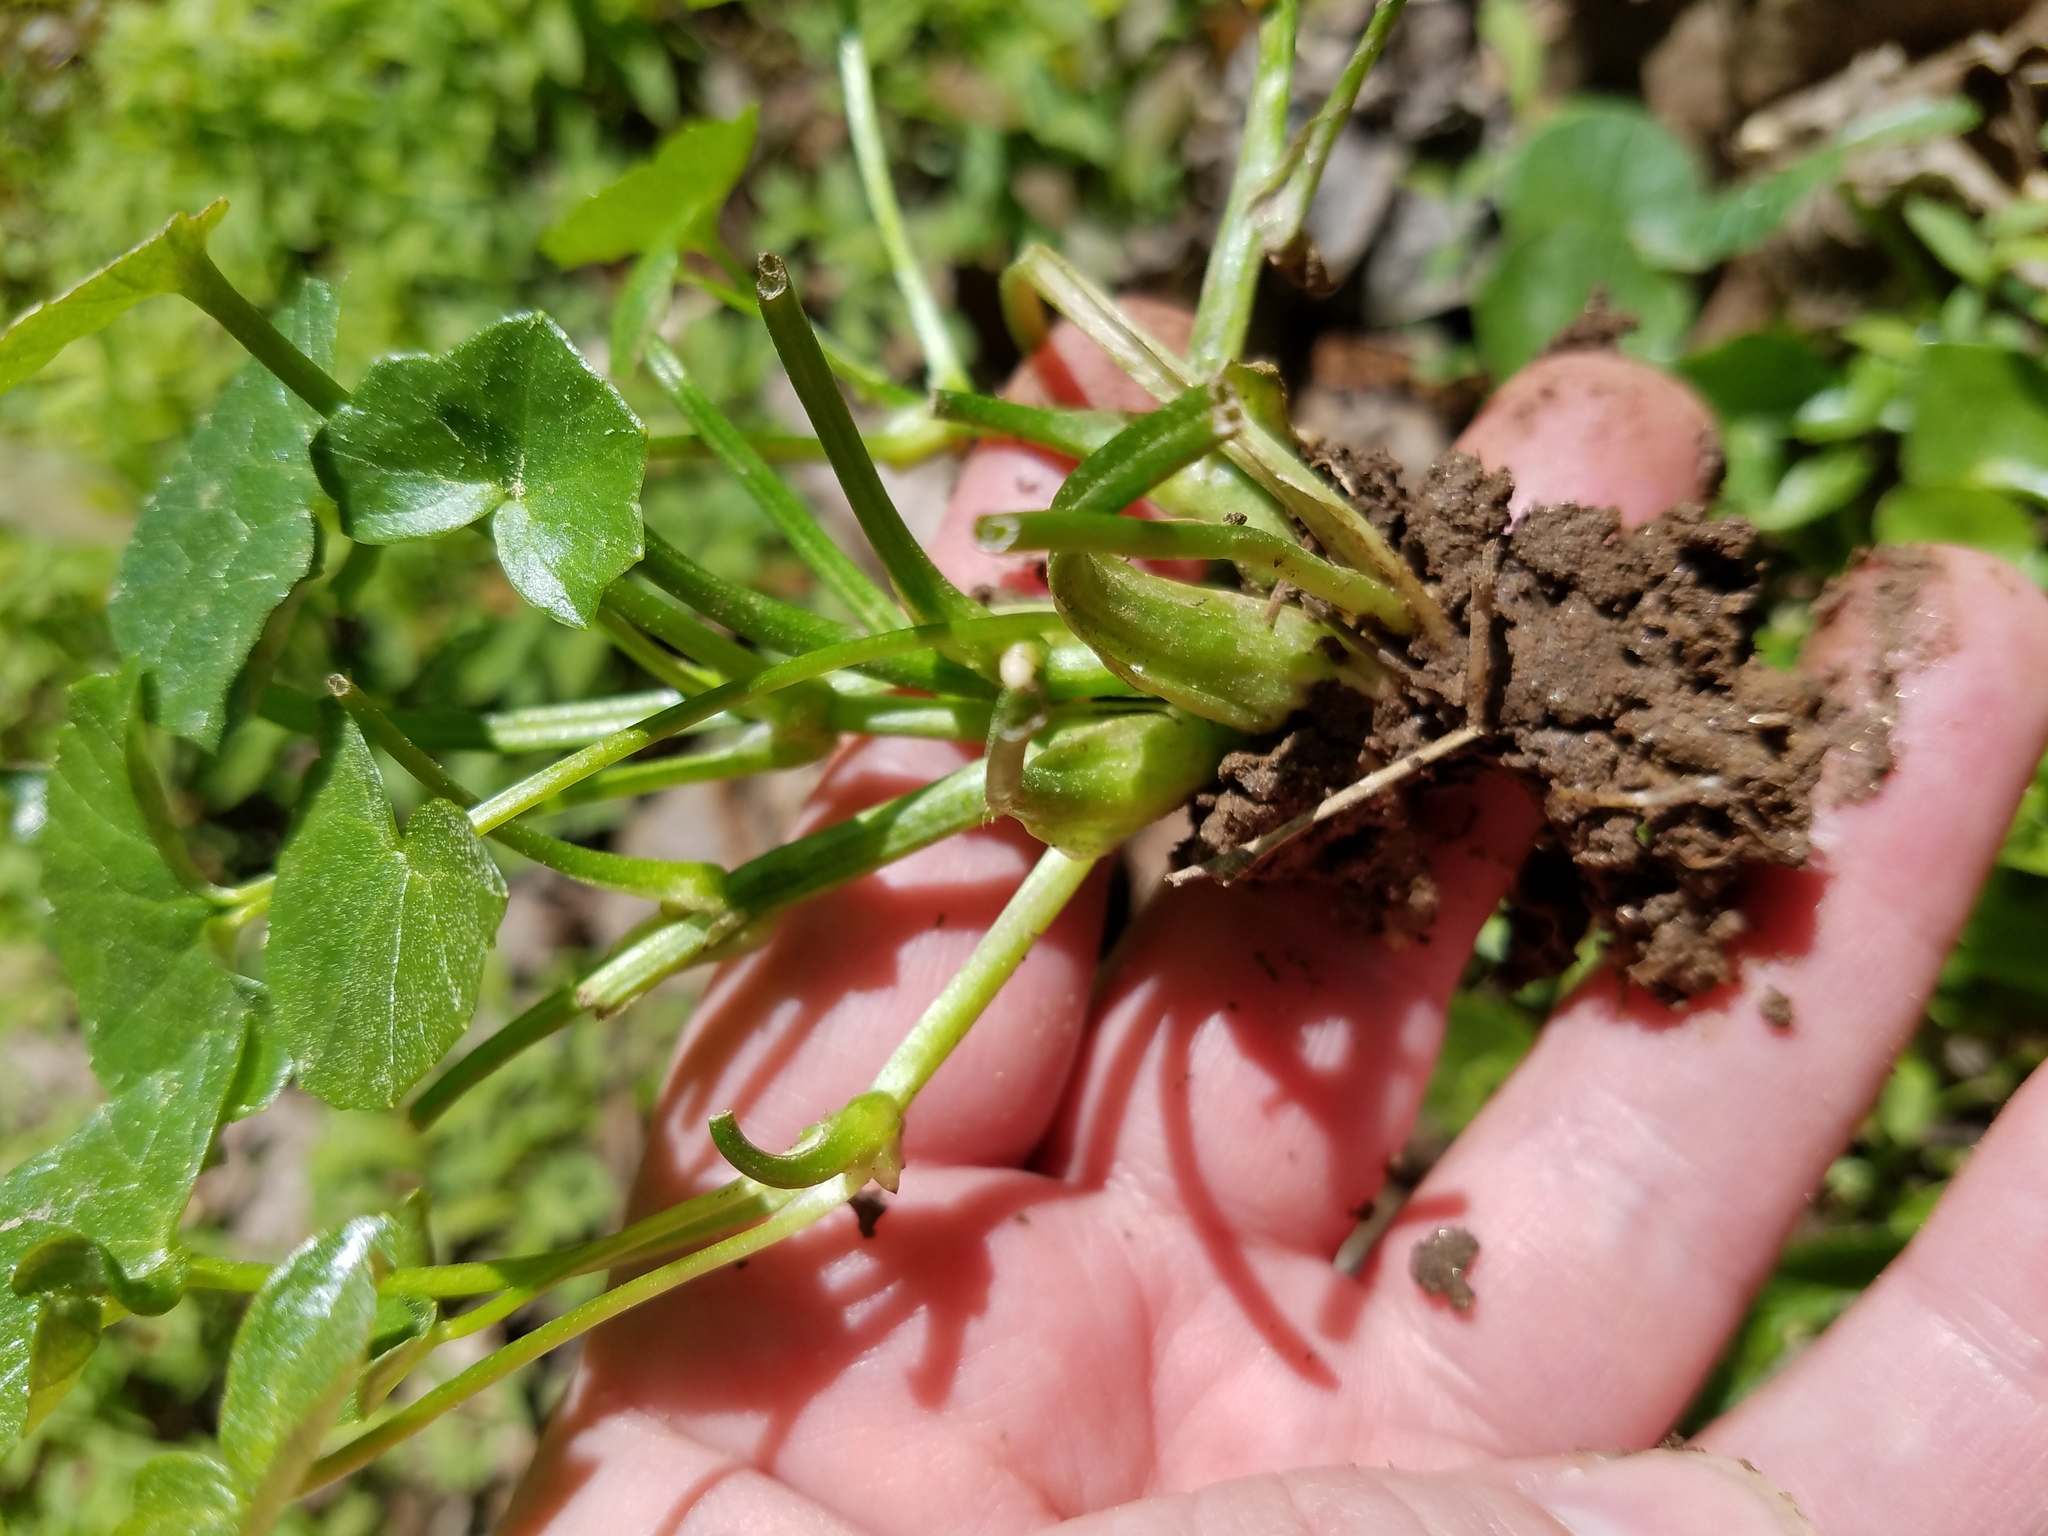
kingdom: Plantae
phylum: Tracheophyta
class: Magnoliopsida
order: Ranunculales
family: Ranunculaceae
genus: Ficaria
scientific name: Ficaria verna
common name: Lesser celandine
